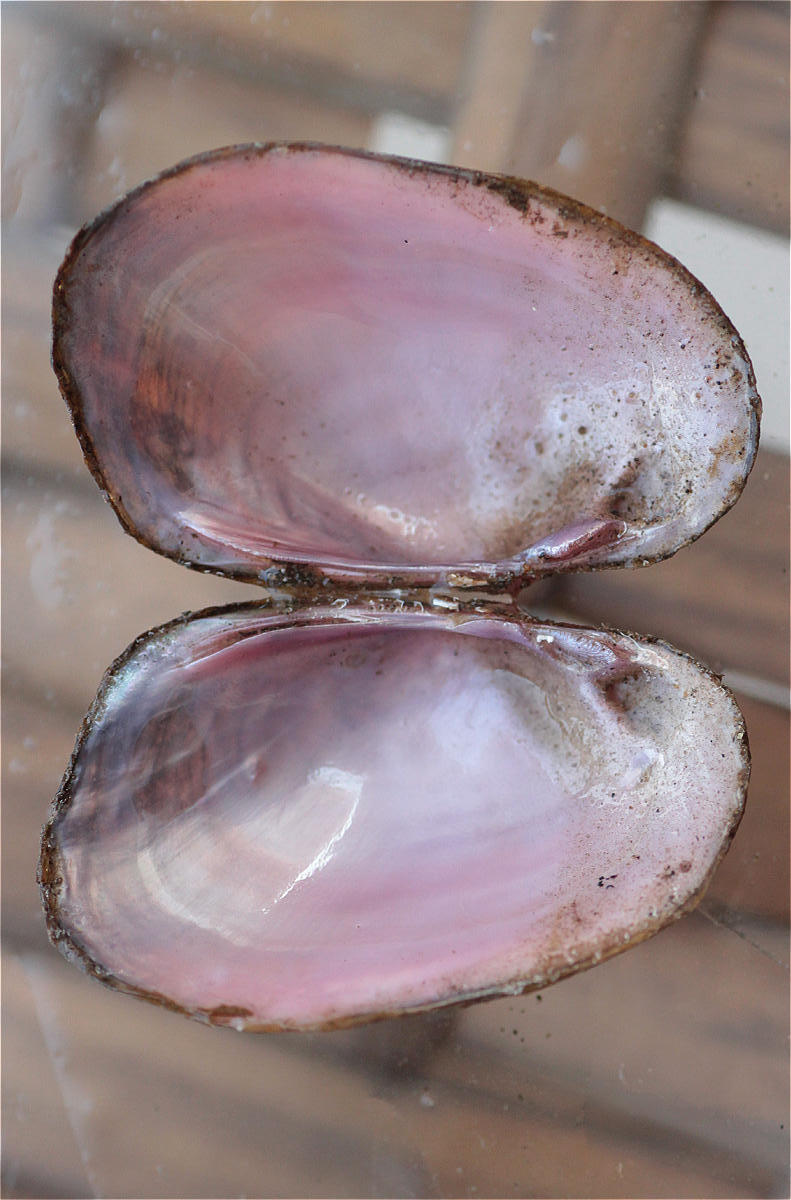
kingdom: Animalia
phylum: Mollusca
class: Bivalvia
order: Unionida
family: Unionidae
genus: Coelatura
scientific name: Coelatura aegyptiaca
